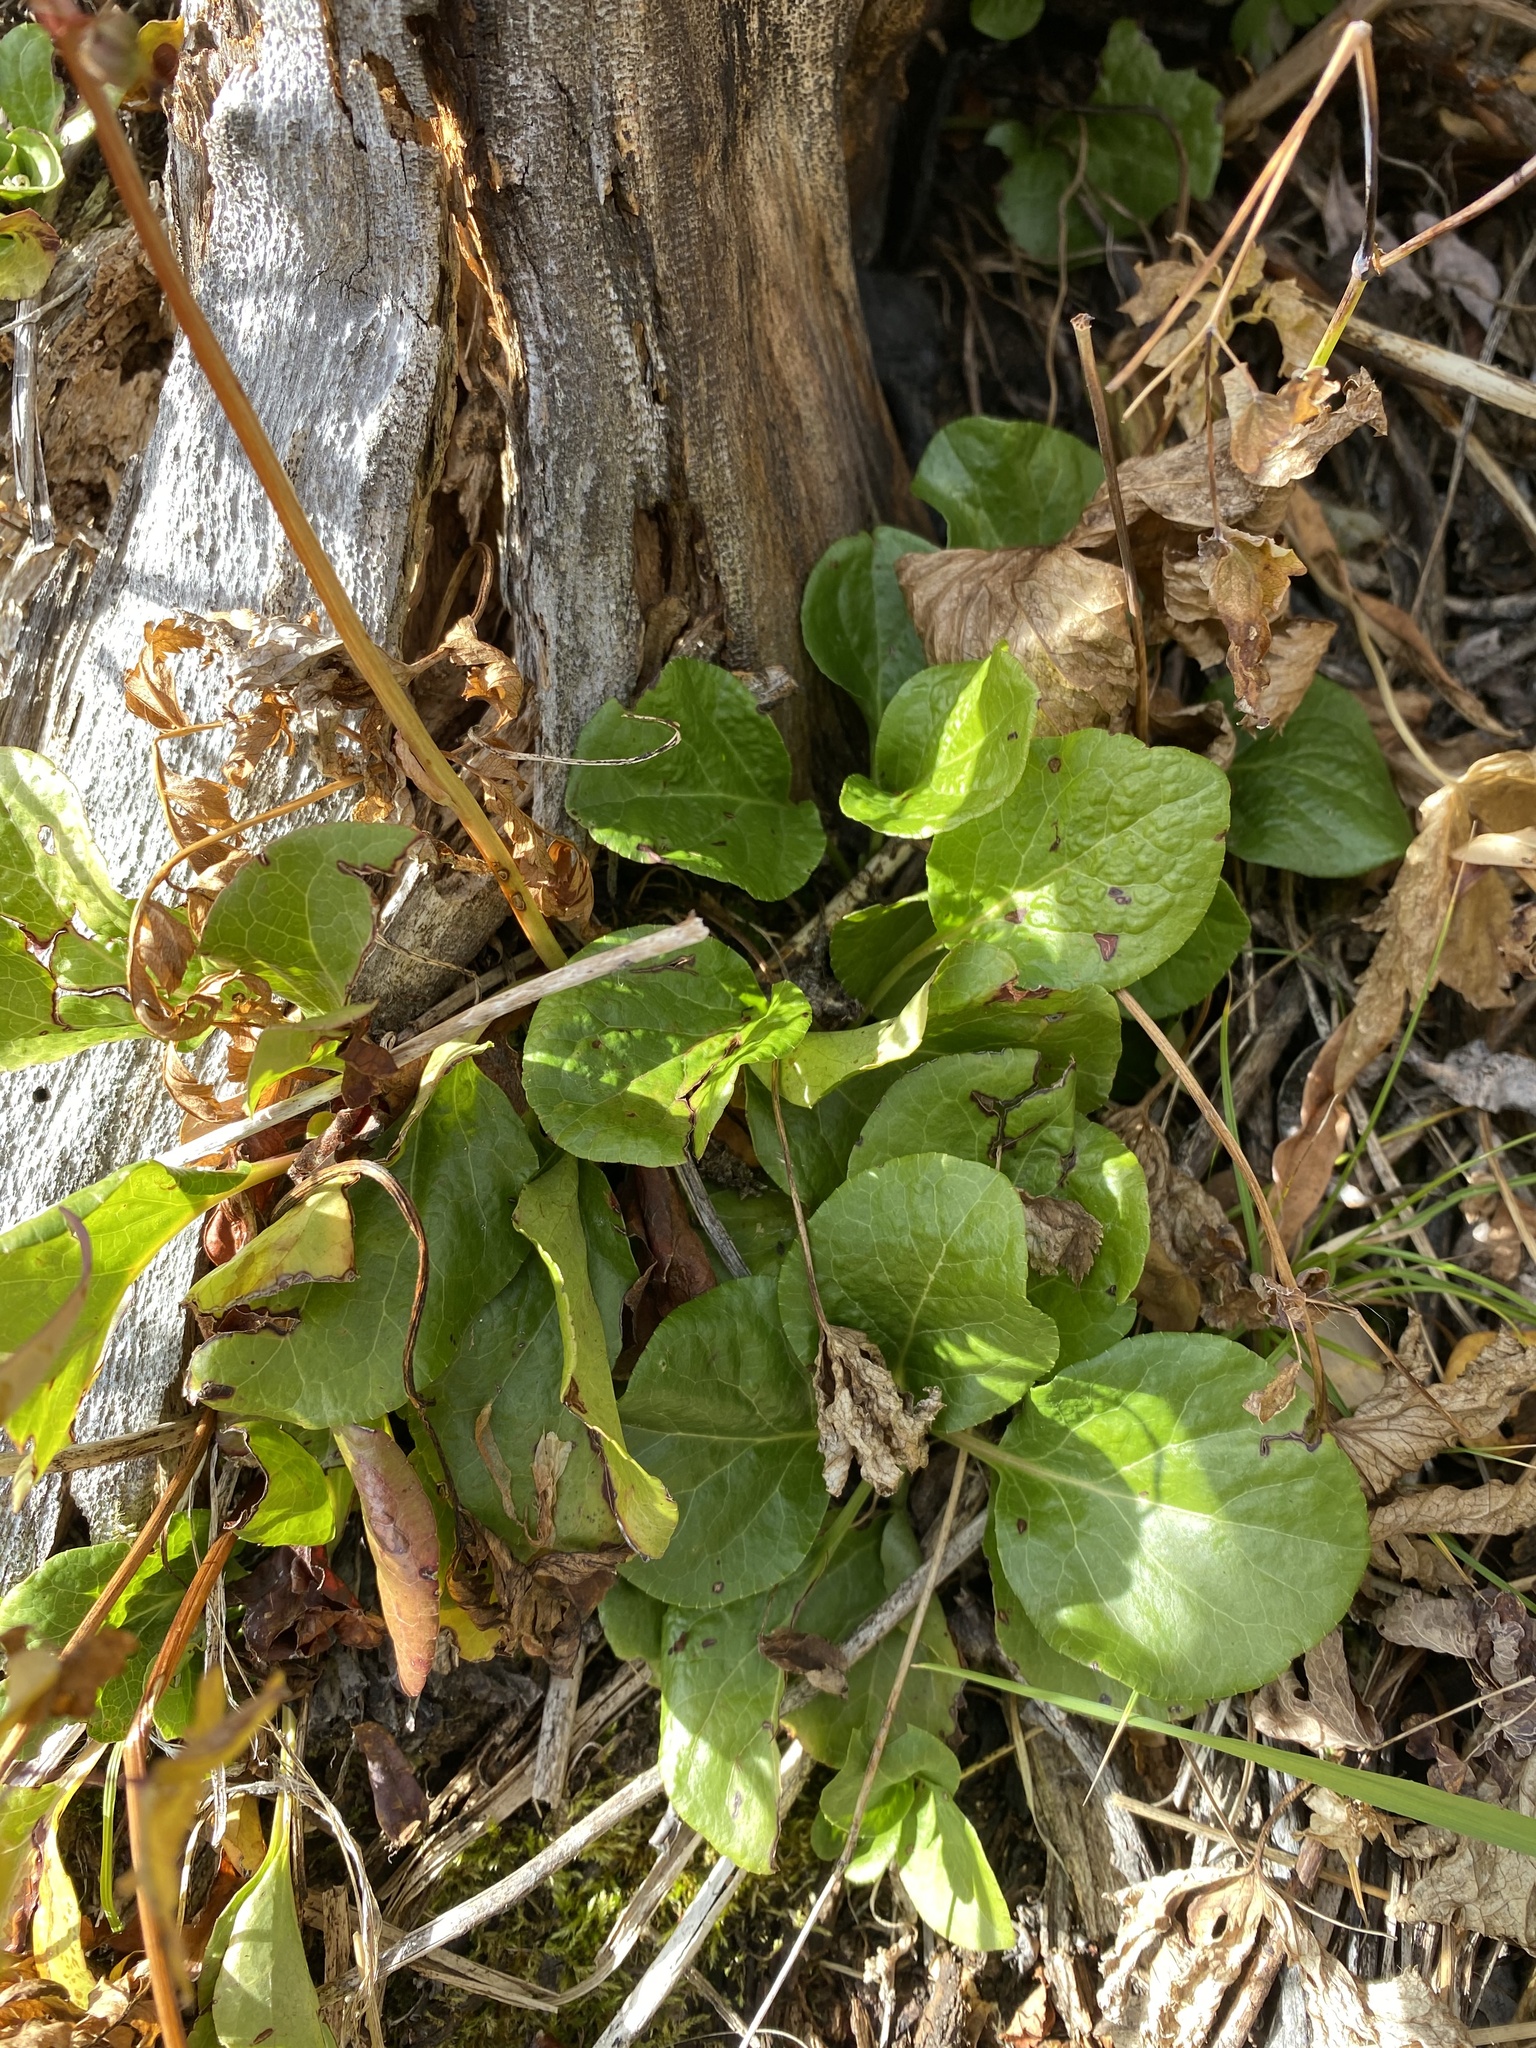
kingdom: Plantae
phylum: Tracheophyta
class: Magnoliopsida
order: Ericales
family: Ericaceae
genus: Pyrola
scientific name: Pyrola asarifolia
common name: Bog wintergreen
